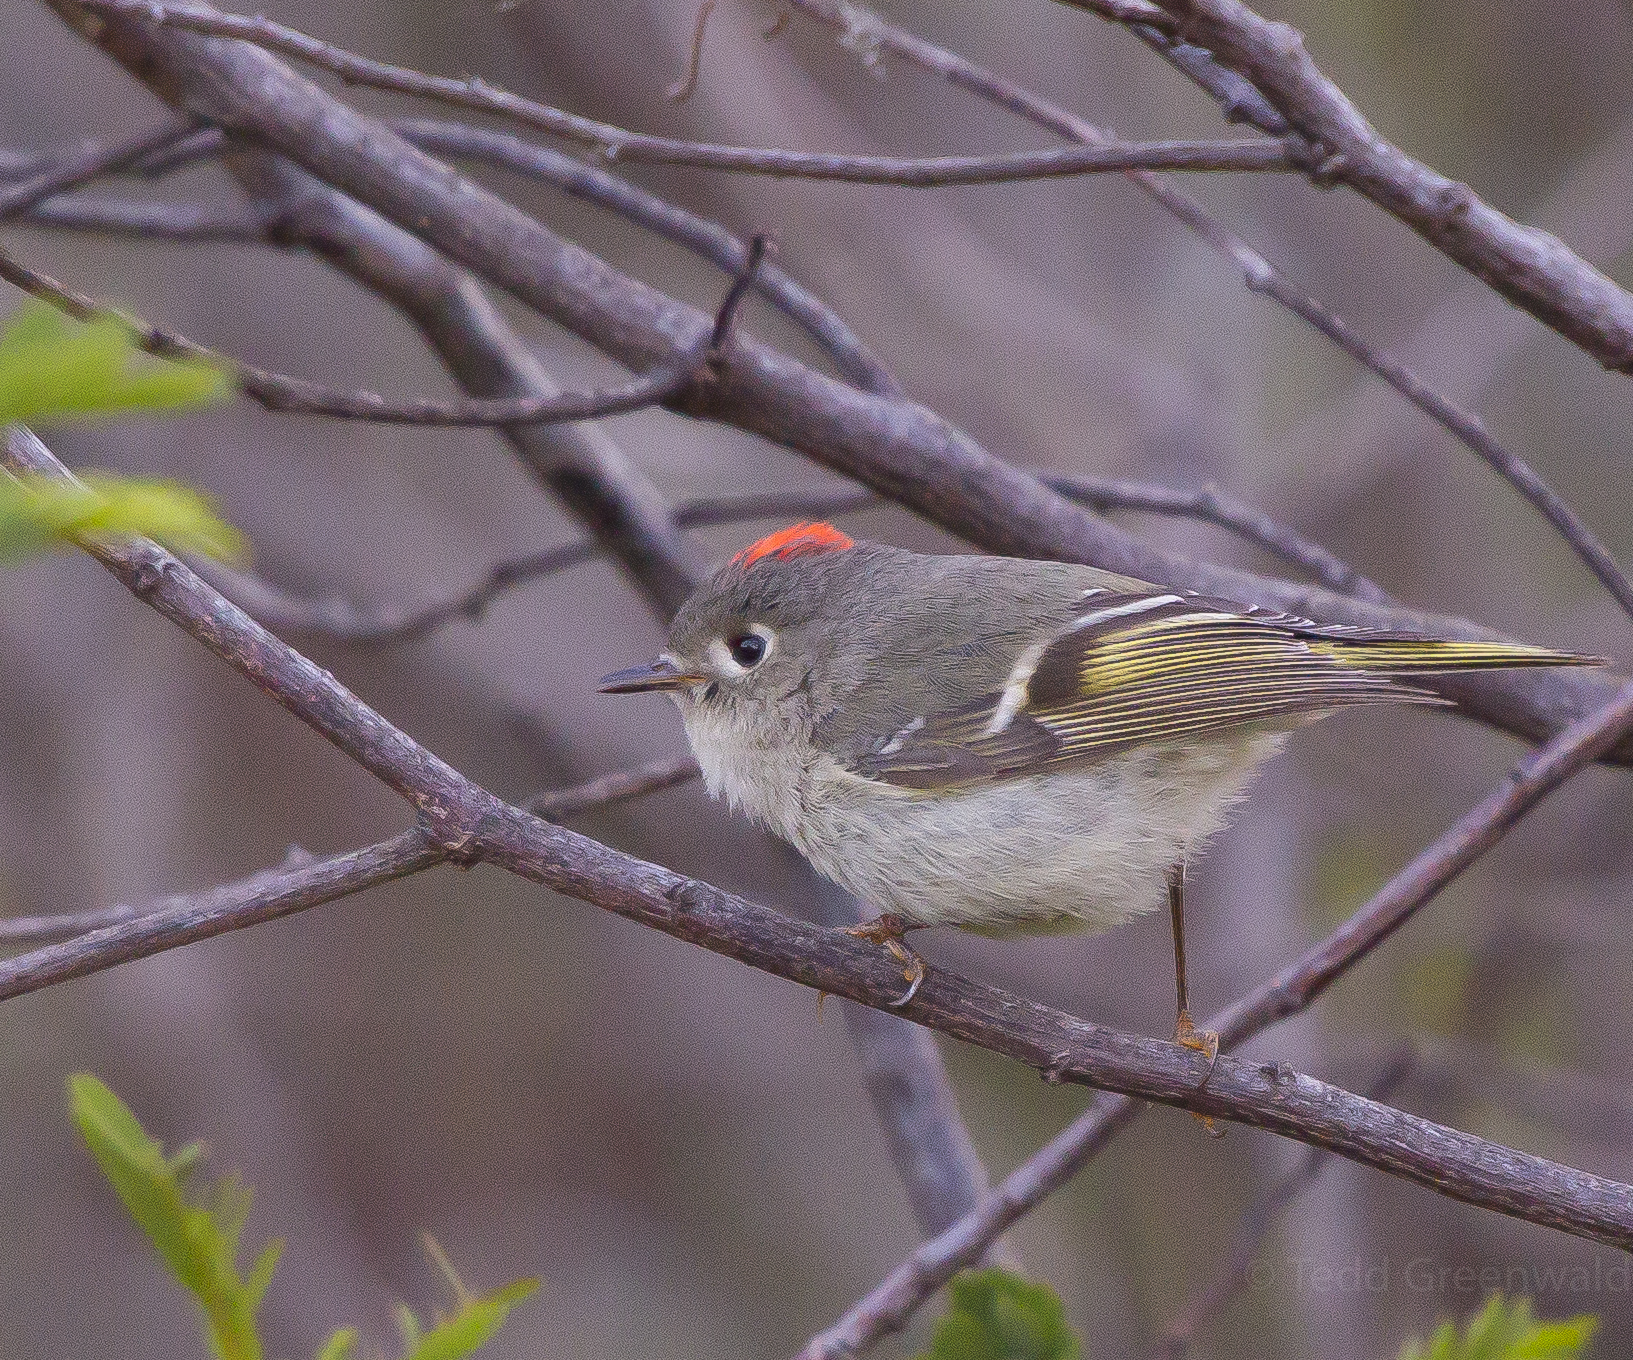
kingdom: Animalia
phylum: Chordata
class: Aves
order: Passeriformes
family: Regulidae
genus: Regulus
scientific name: Regulus calendula
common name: Ruby-crowned kinglet
